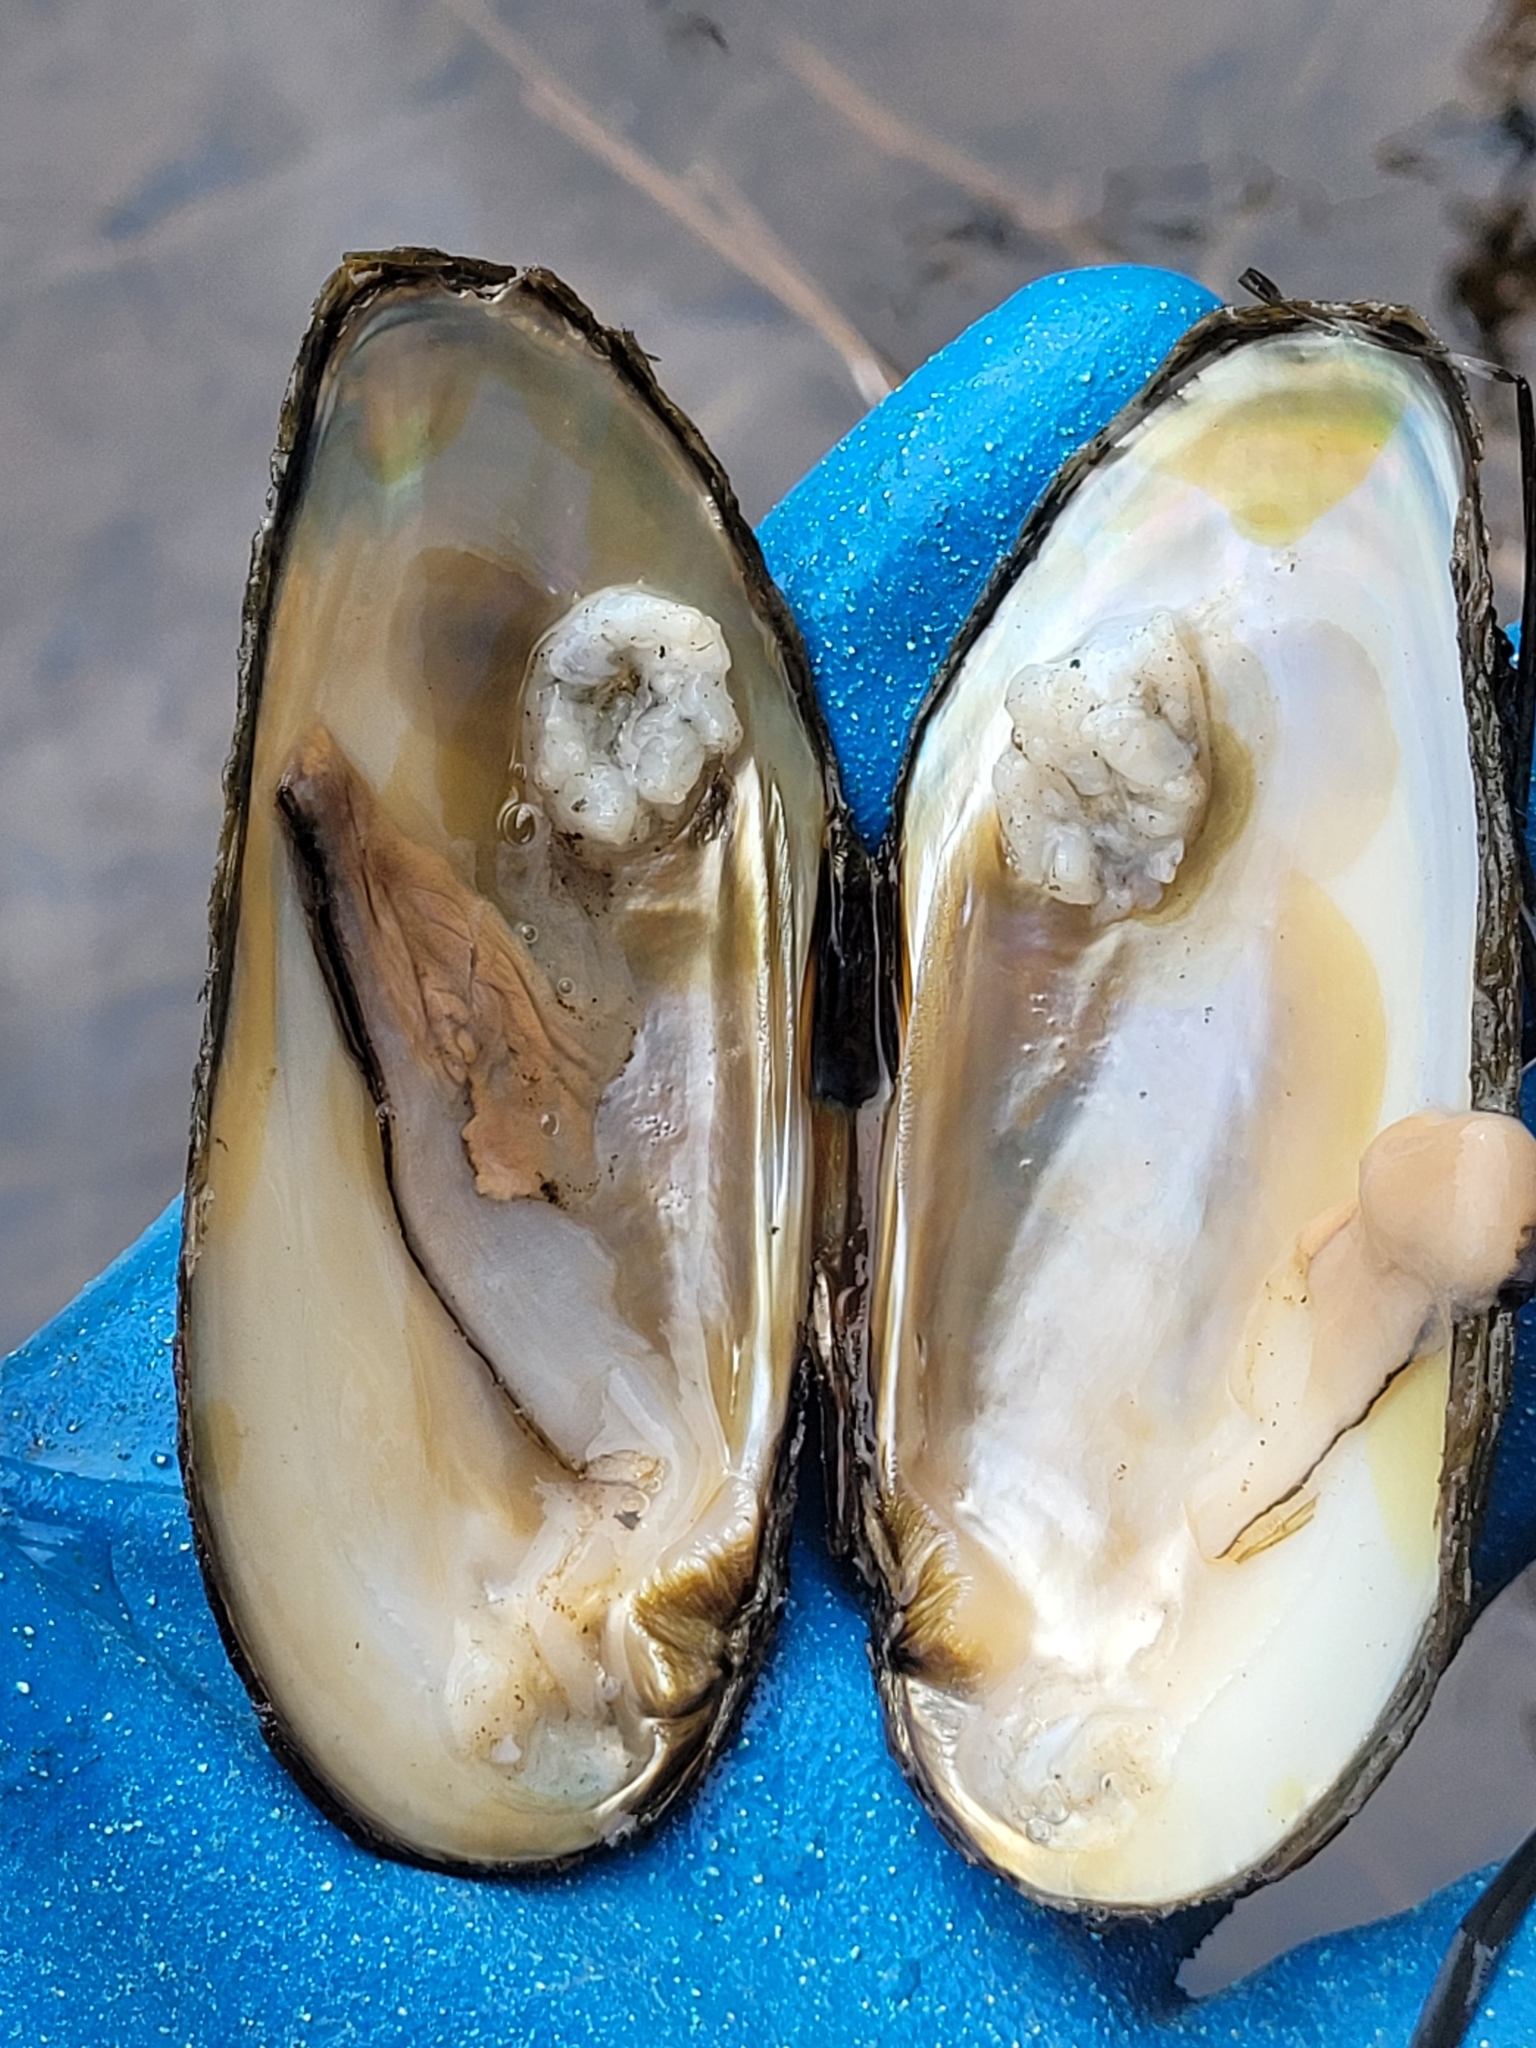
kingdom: Animalia
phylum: Mollusca
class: Bivalvia
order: Unionida
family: Unionidae
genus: Elliptio
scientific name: Elliptio complanata
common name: Eastern elliptio
